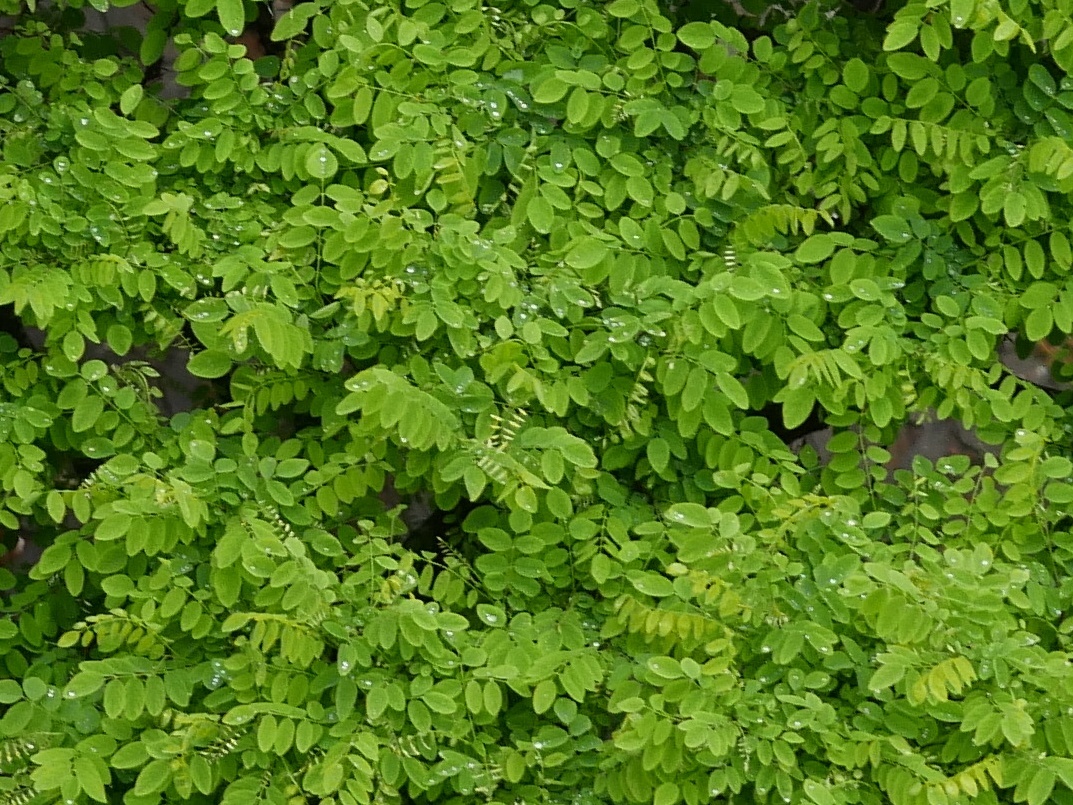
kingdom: Plantae
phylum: Tracheophyta
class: Magnoliopsida
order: Fabales
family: Fabaceae
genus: Robinia
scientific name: Robinia pseudoacacia
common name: Black locust
